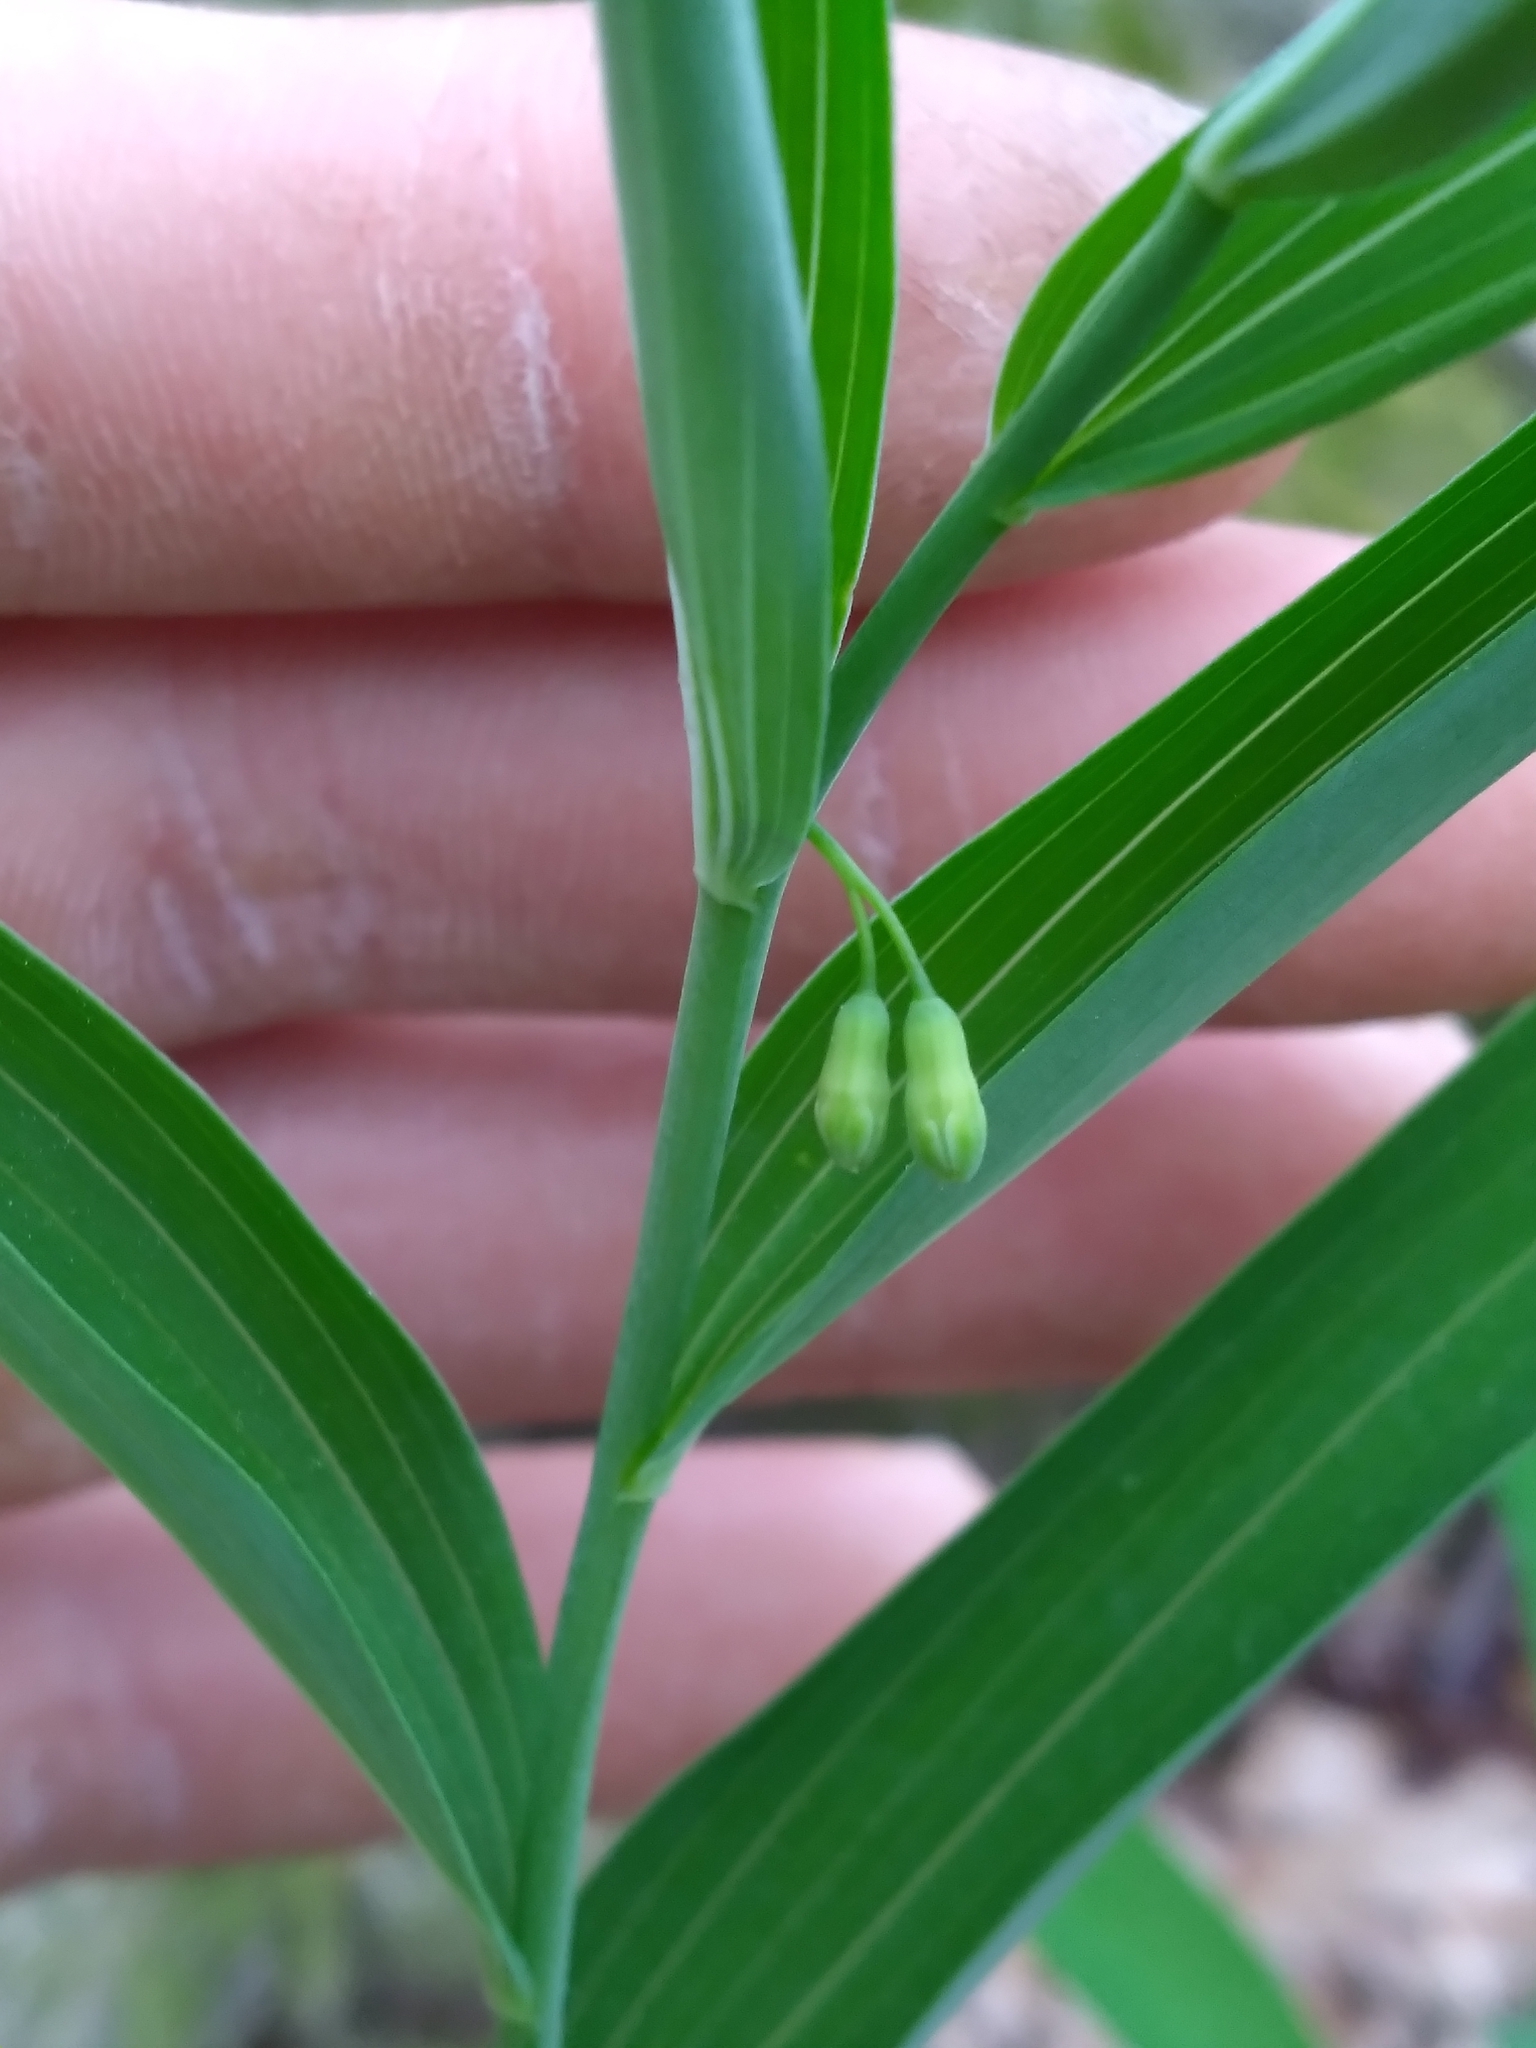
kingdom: Plantae
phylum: Tracheophyta
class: Liliopsida
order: Asparagales
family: Asparagaceae
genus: Polygonatum
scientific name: Polygonatum biflorum
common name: American solomon's-seal
